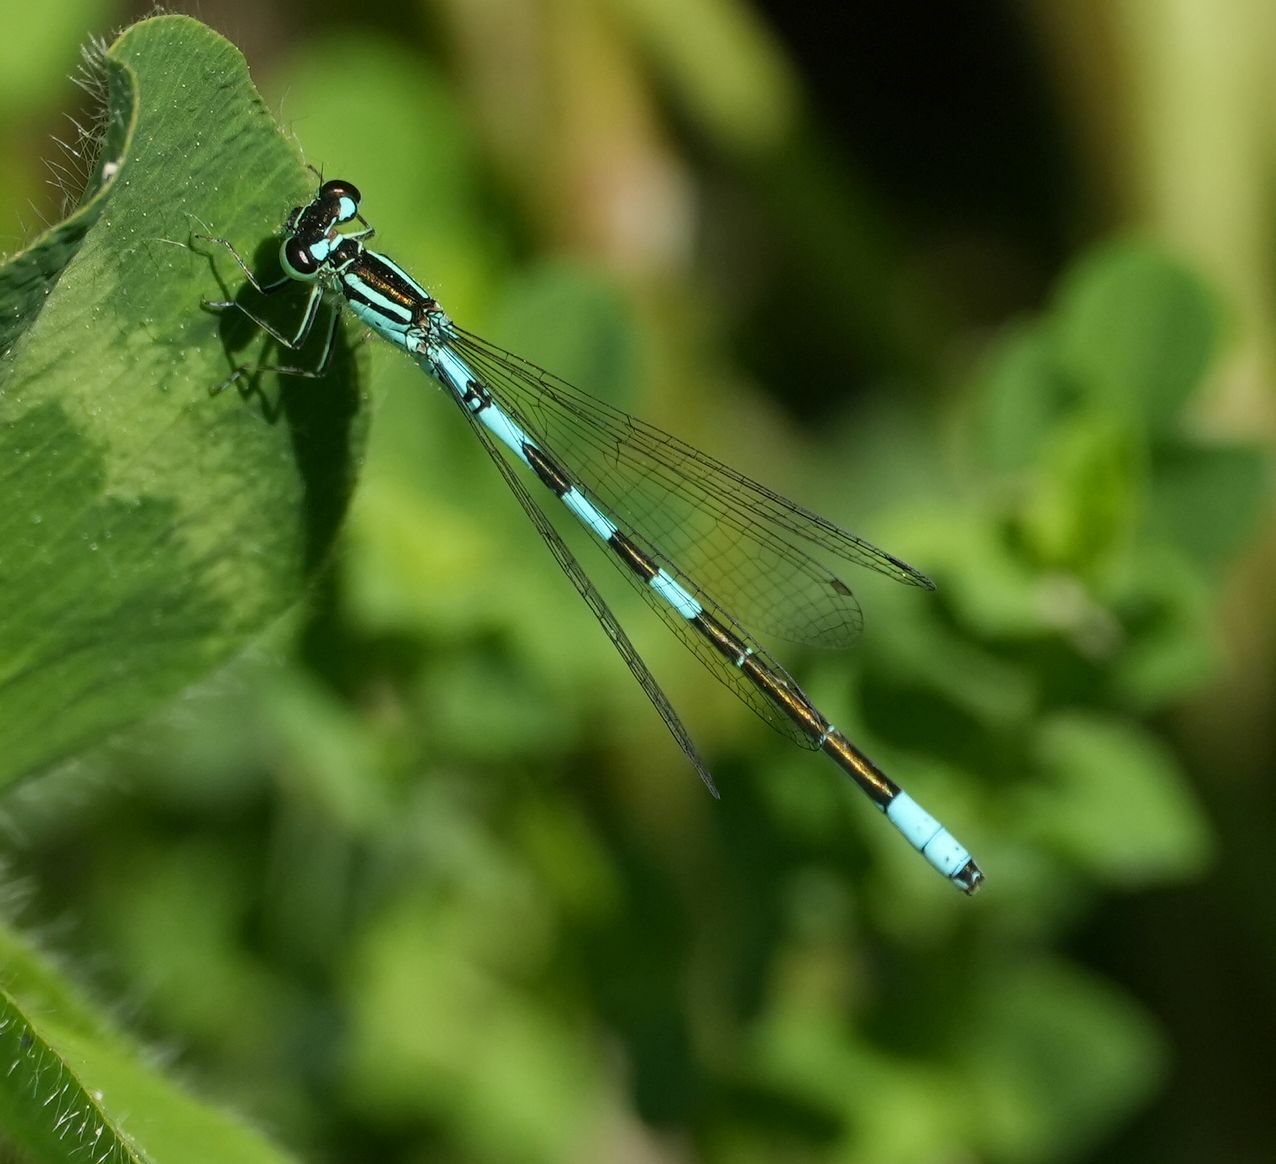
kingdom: Animalia
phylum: Arthropoda
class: Insecta
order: Odonata
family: Coenagrionidae
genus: Coenagrion
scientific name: Coenagrion resolutum
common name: Taiga bluet
